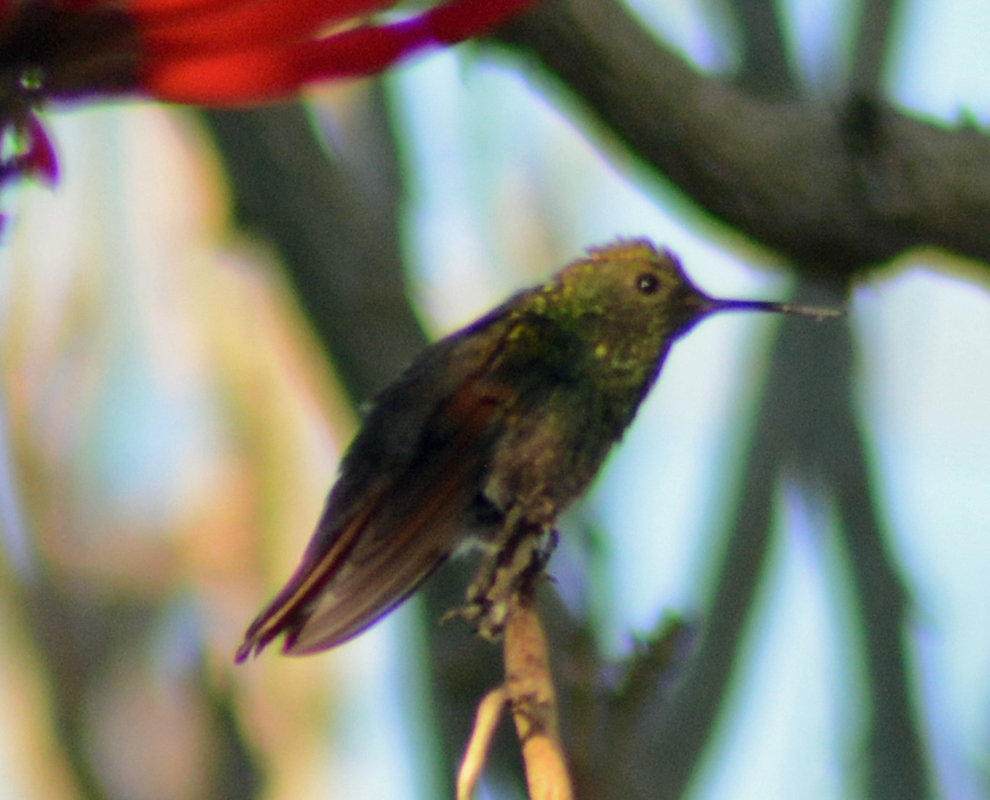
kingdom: Animalia
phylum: Chordata
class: Aves
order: Apodiformes
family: Trochilidae
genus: Saucerottia
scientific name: Saucerottia beryllina
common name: Berylline hummingbird
